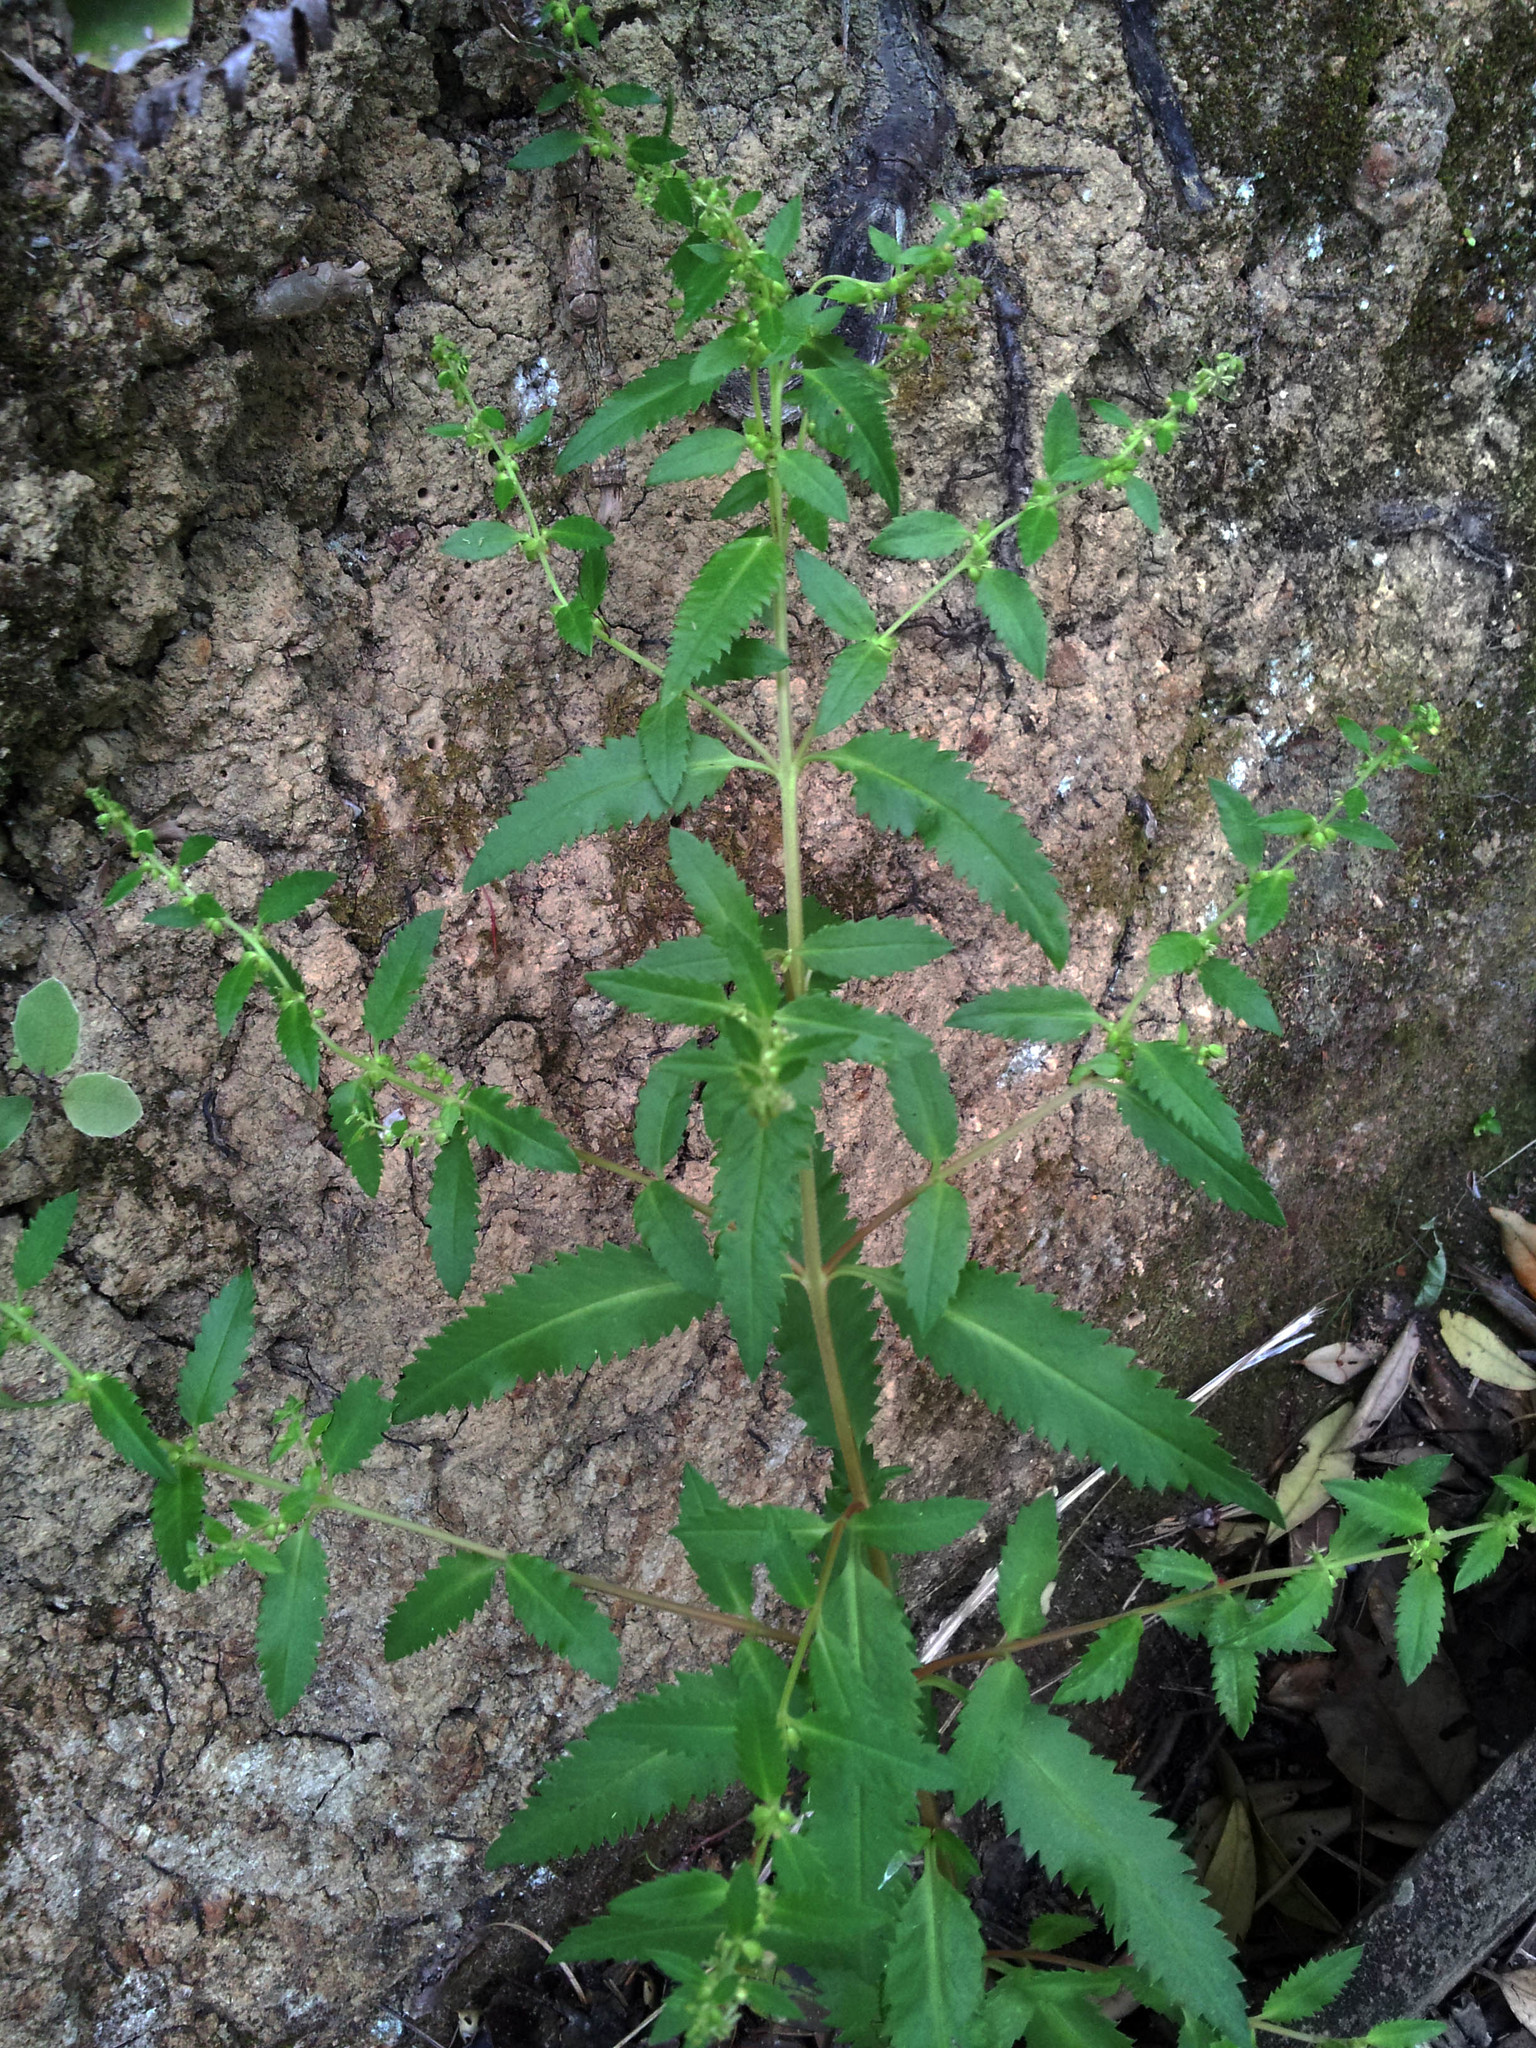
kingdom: Plantae
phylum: Tracheophyta
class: Magnoliopsida
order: Saxifragales
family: Haloragaceae
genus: Haloragis
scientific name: Haloragis erecta
